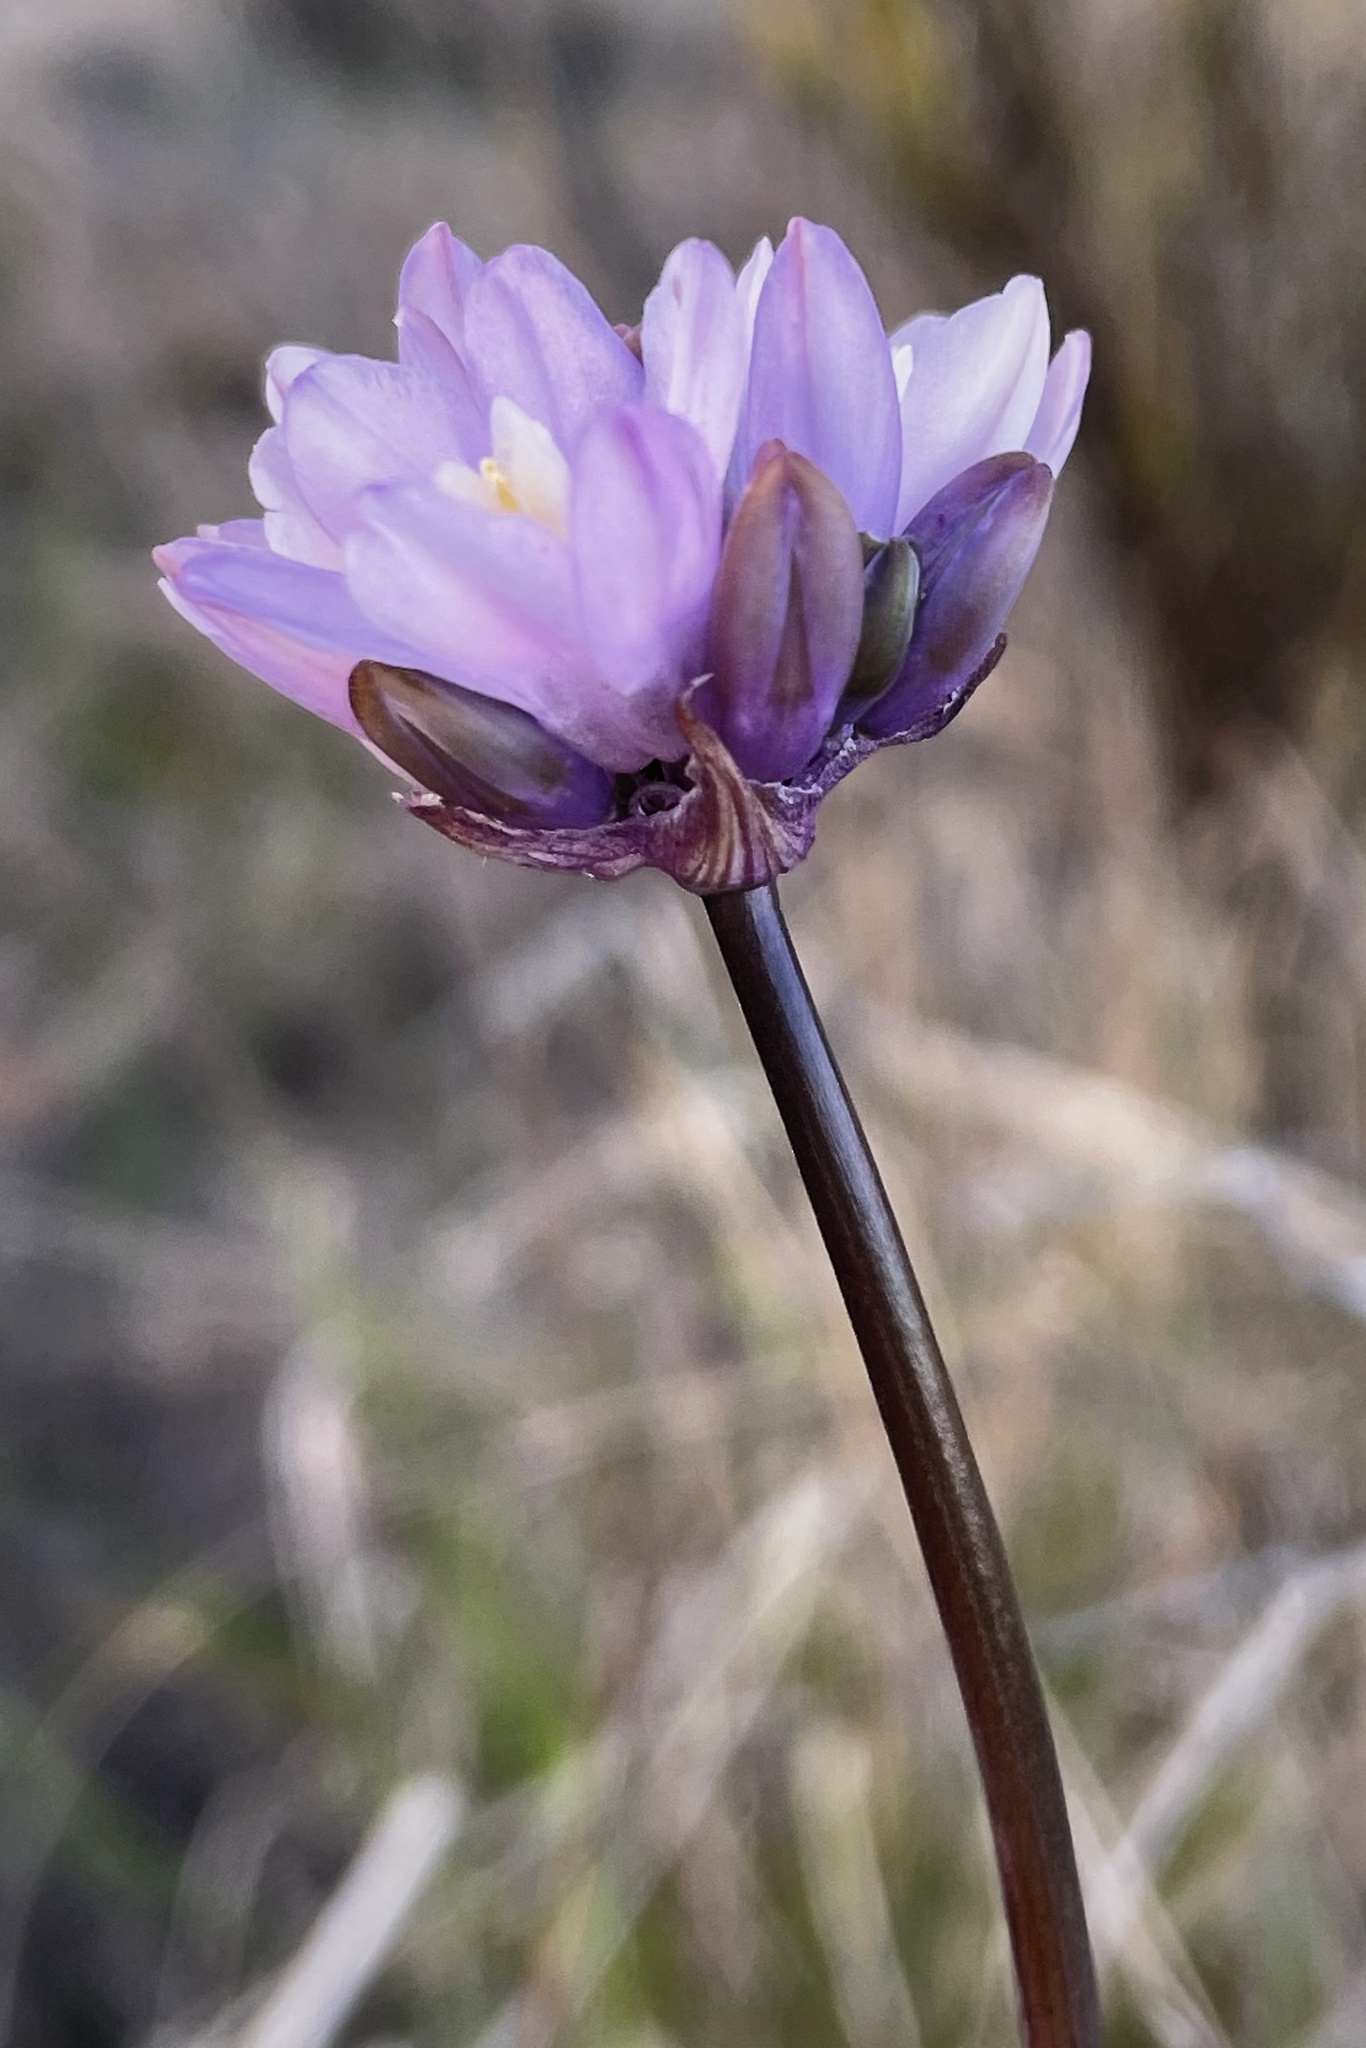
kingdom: Plantae
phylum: Tracheophyta
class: Liliopsida
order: Asparagales
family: Asparagaceae
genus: Dipterostemon
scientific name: Dipterostemon capitatus
